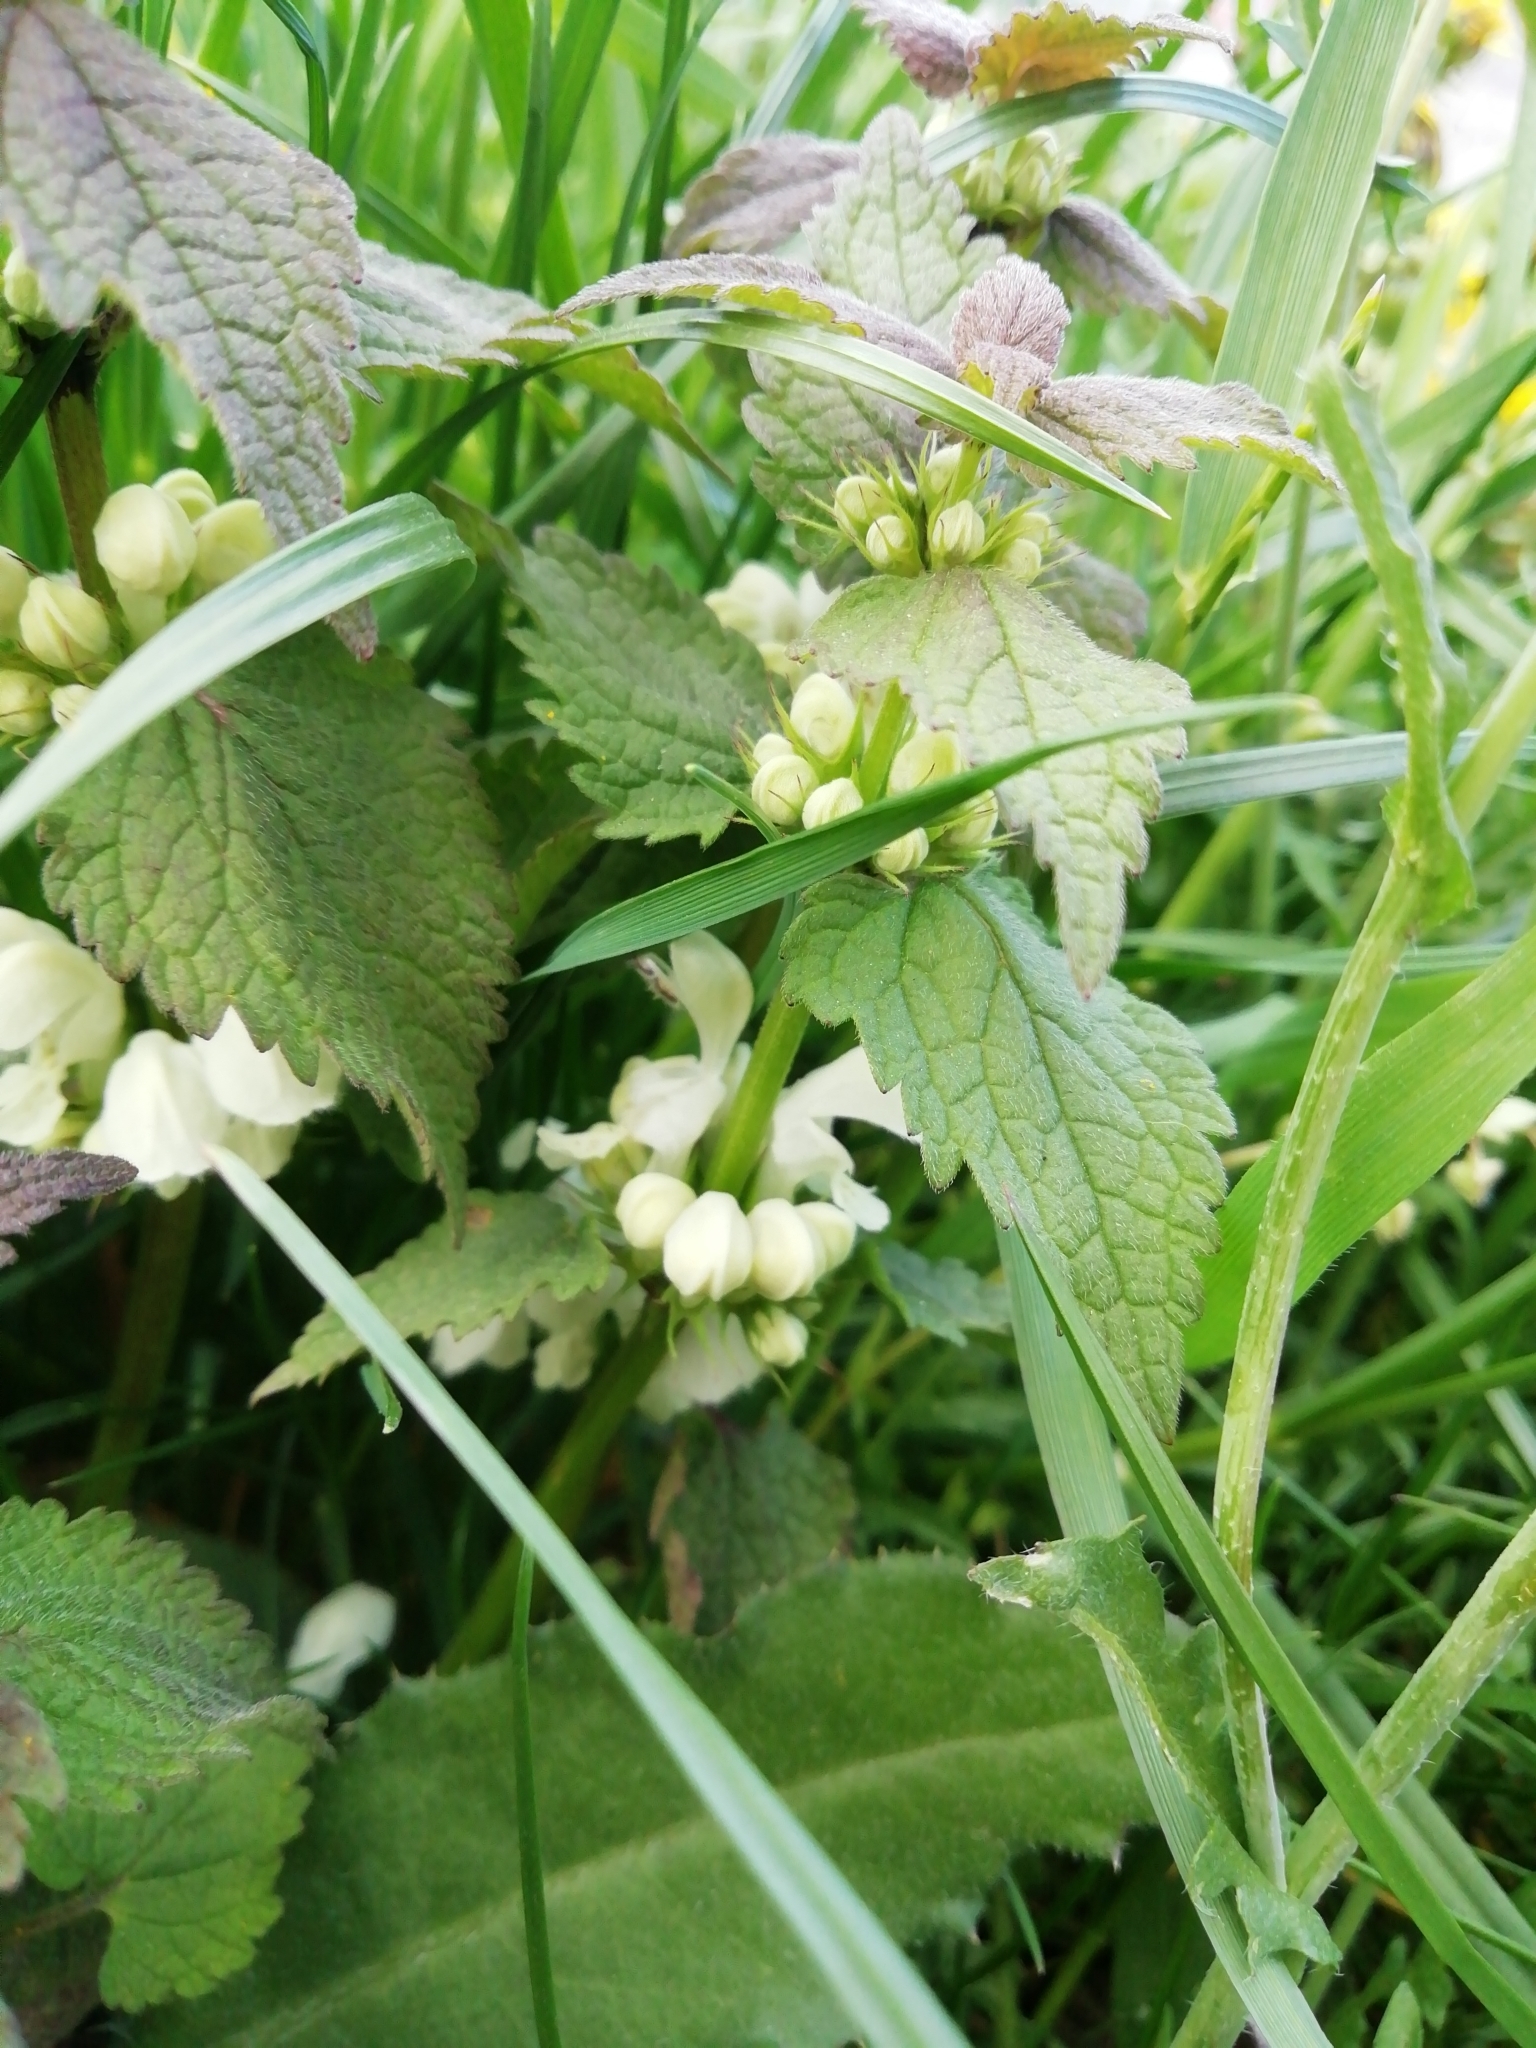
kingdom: Plantae
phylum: Tracheophyta
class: Magnoliopsida
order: Lamiales
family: Lamiaceae
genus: Lamium
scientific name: Lamium album
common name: White dead-nettle
